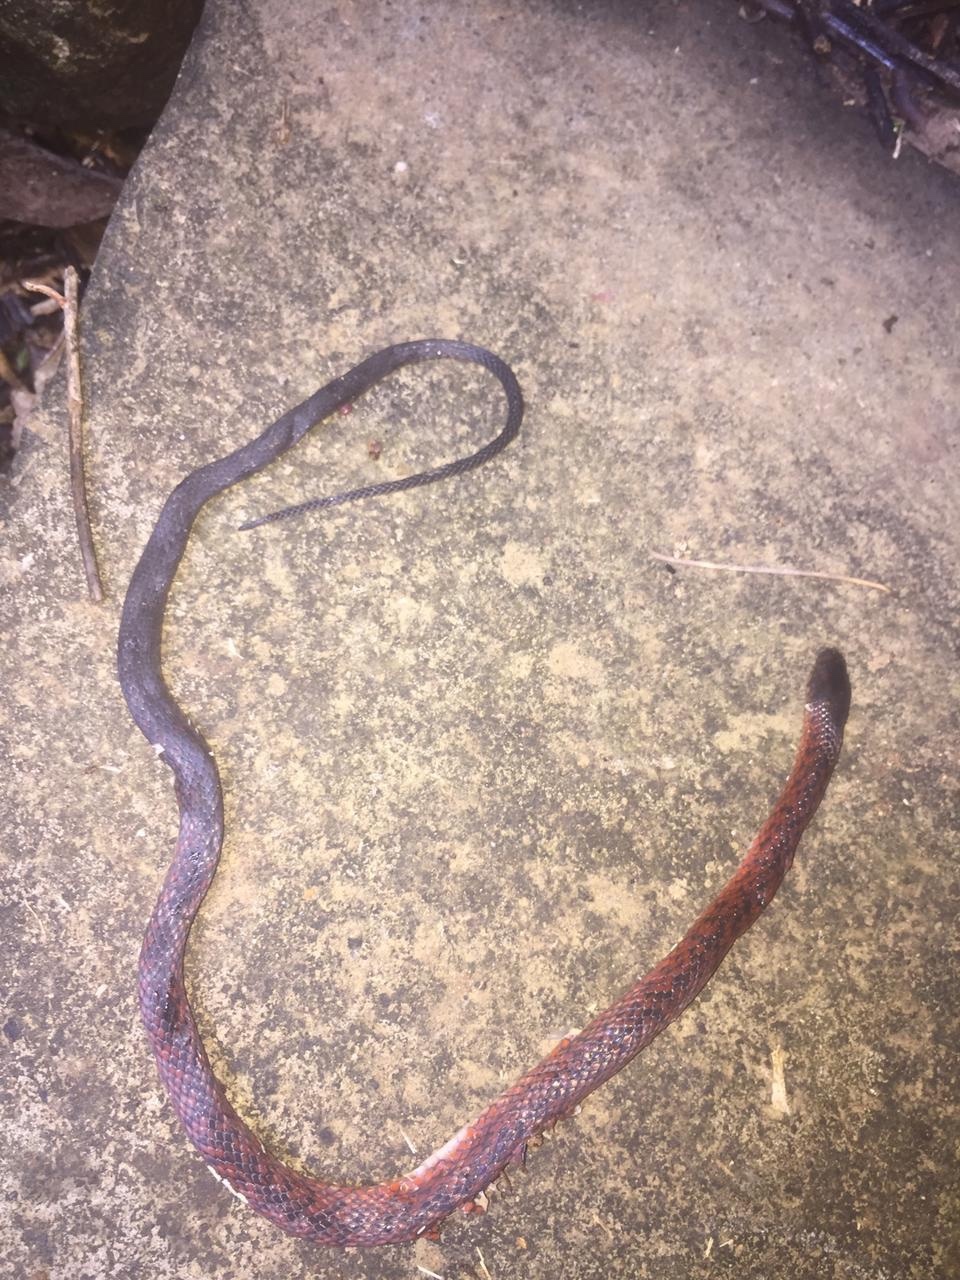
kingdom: Animalia
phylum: Chordata
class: Squamata
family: Colubridae
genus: Elapoidis
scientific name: Elapoidis fusca
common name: Dark-grey ground snake
